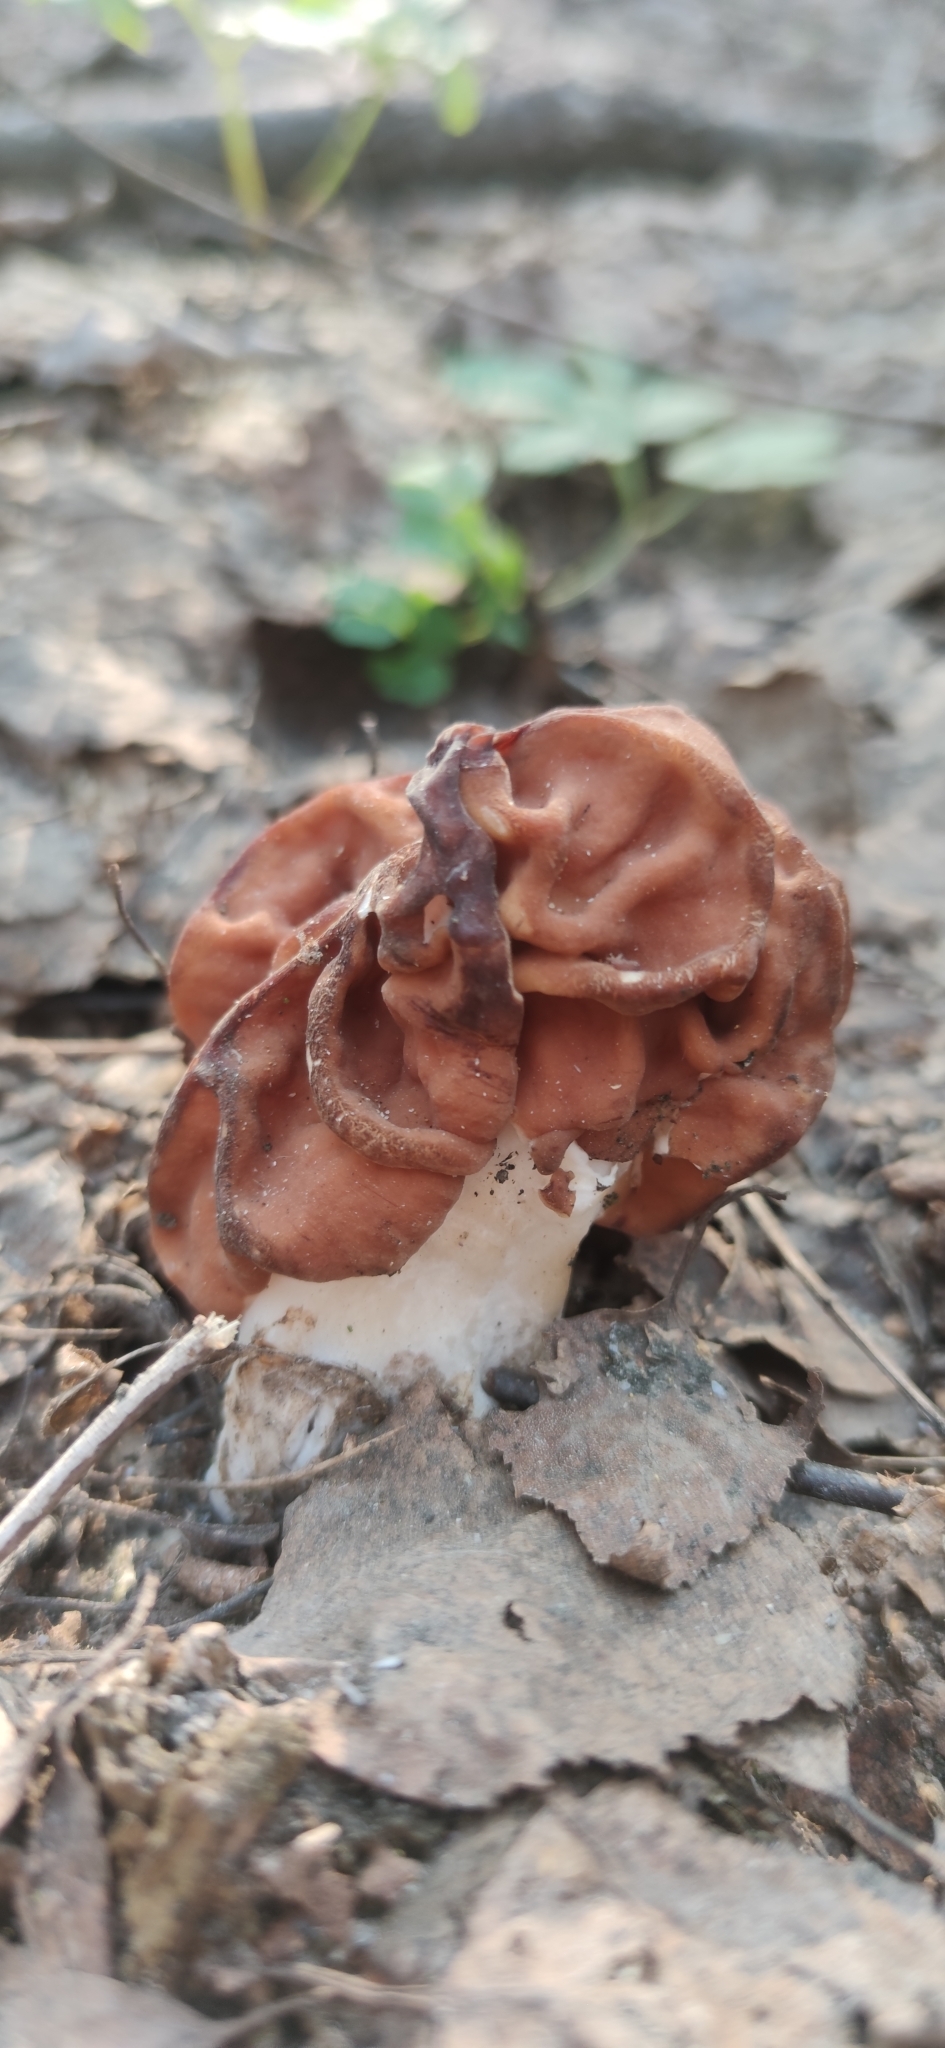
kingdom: Fungi
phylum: Ascomycota
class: Pezizomycetes
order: Pezizales
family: Discinaceae
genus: Gyromitra
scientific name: Gyromitra gigas
